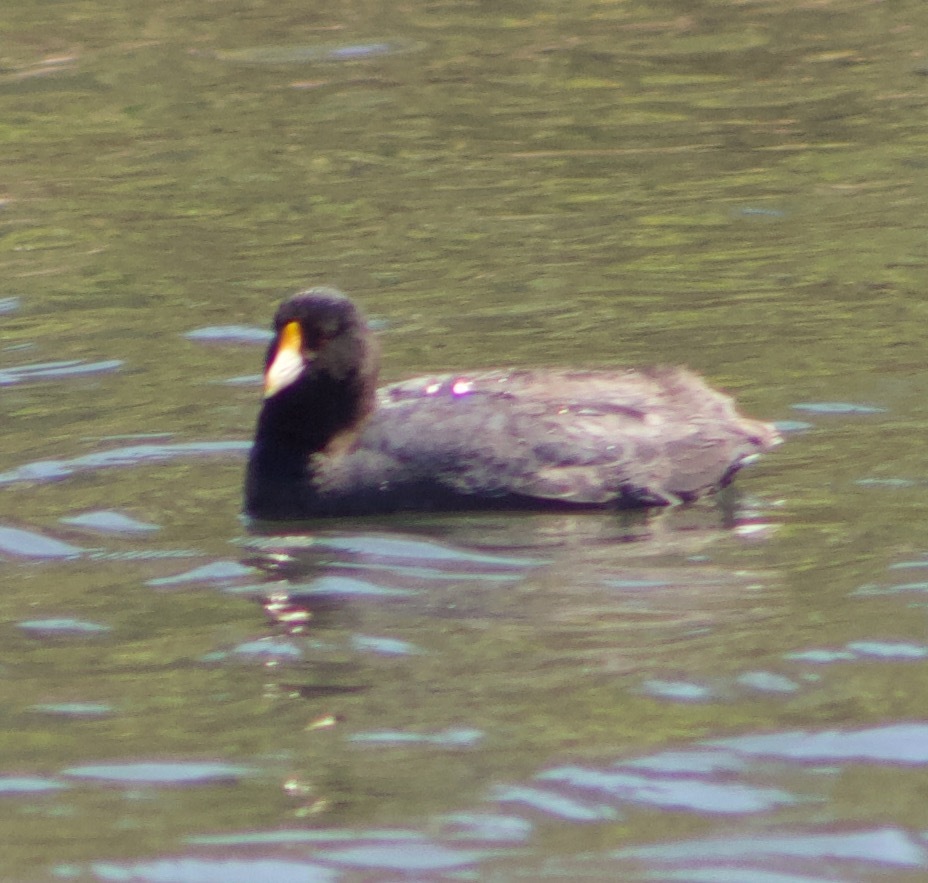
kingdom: Animalia
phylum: Chordata
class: Aves
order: Gruiformes
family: Rallidae
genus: Fulica
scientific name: Fulica leucoptera
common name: White-winged coot
